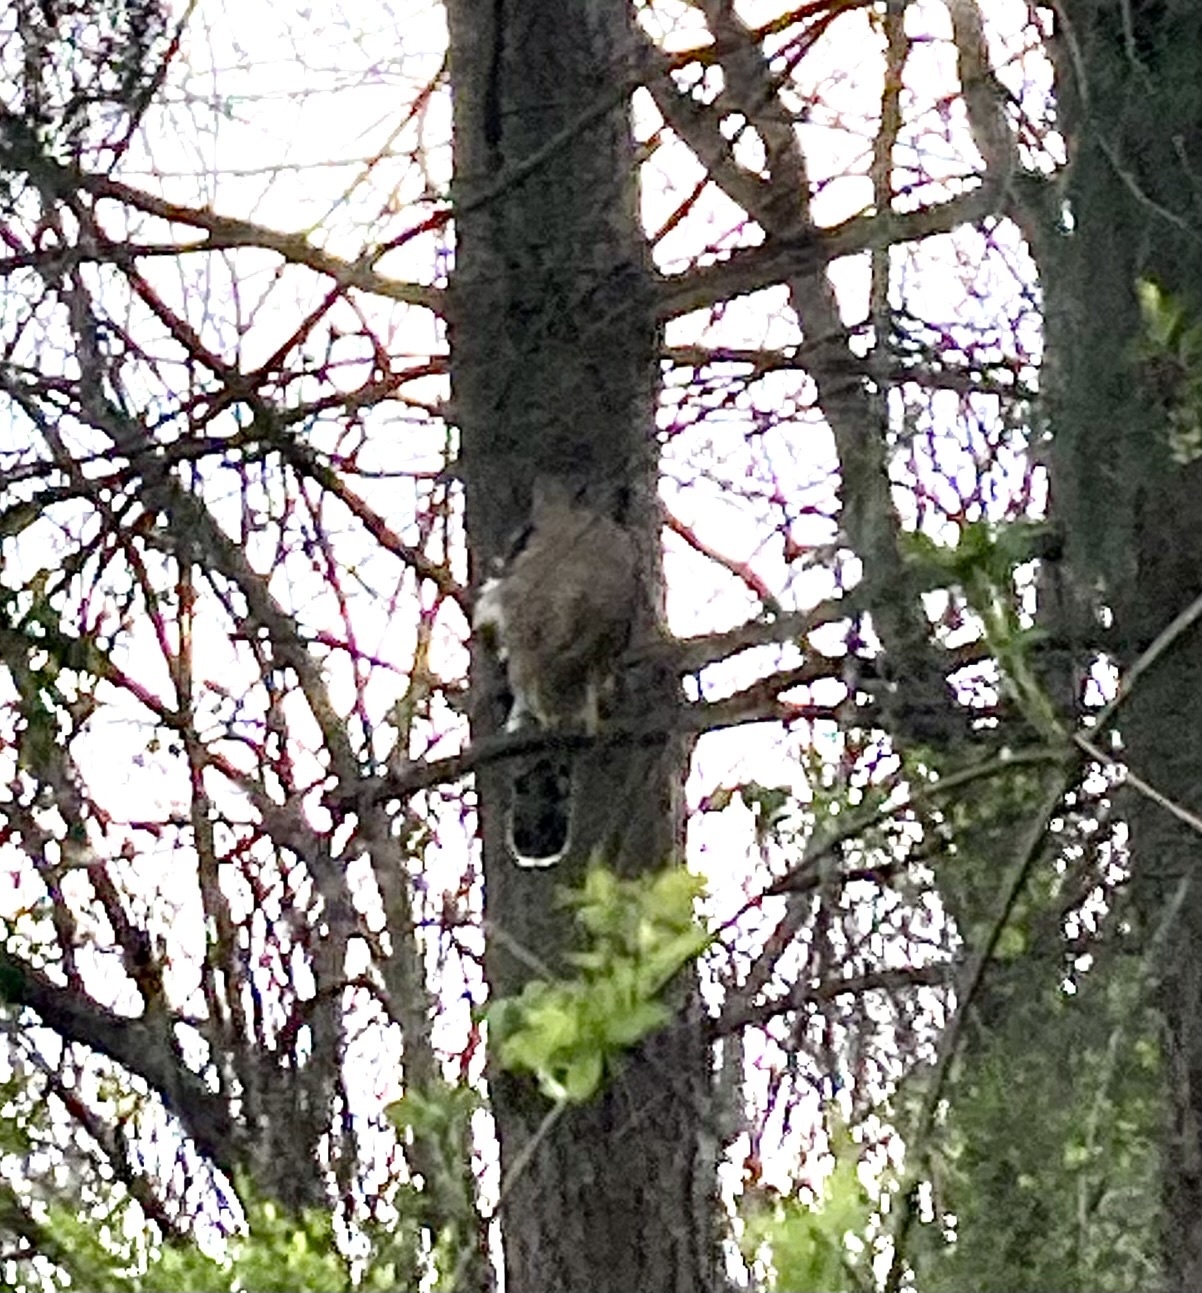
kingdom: Animalia
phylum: Chordata
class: Aves
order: Accipitriformes
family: Accipitridae
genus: Accipiter
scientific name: Accipiter cooperii
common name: Cooper's hawk
